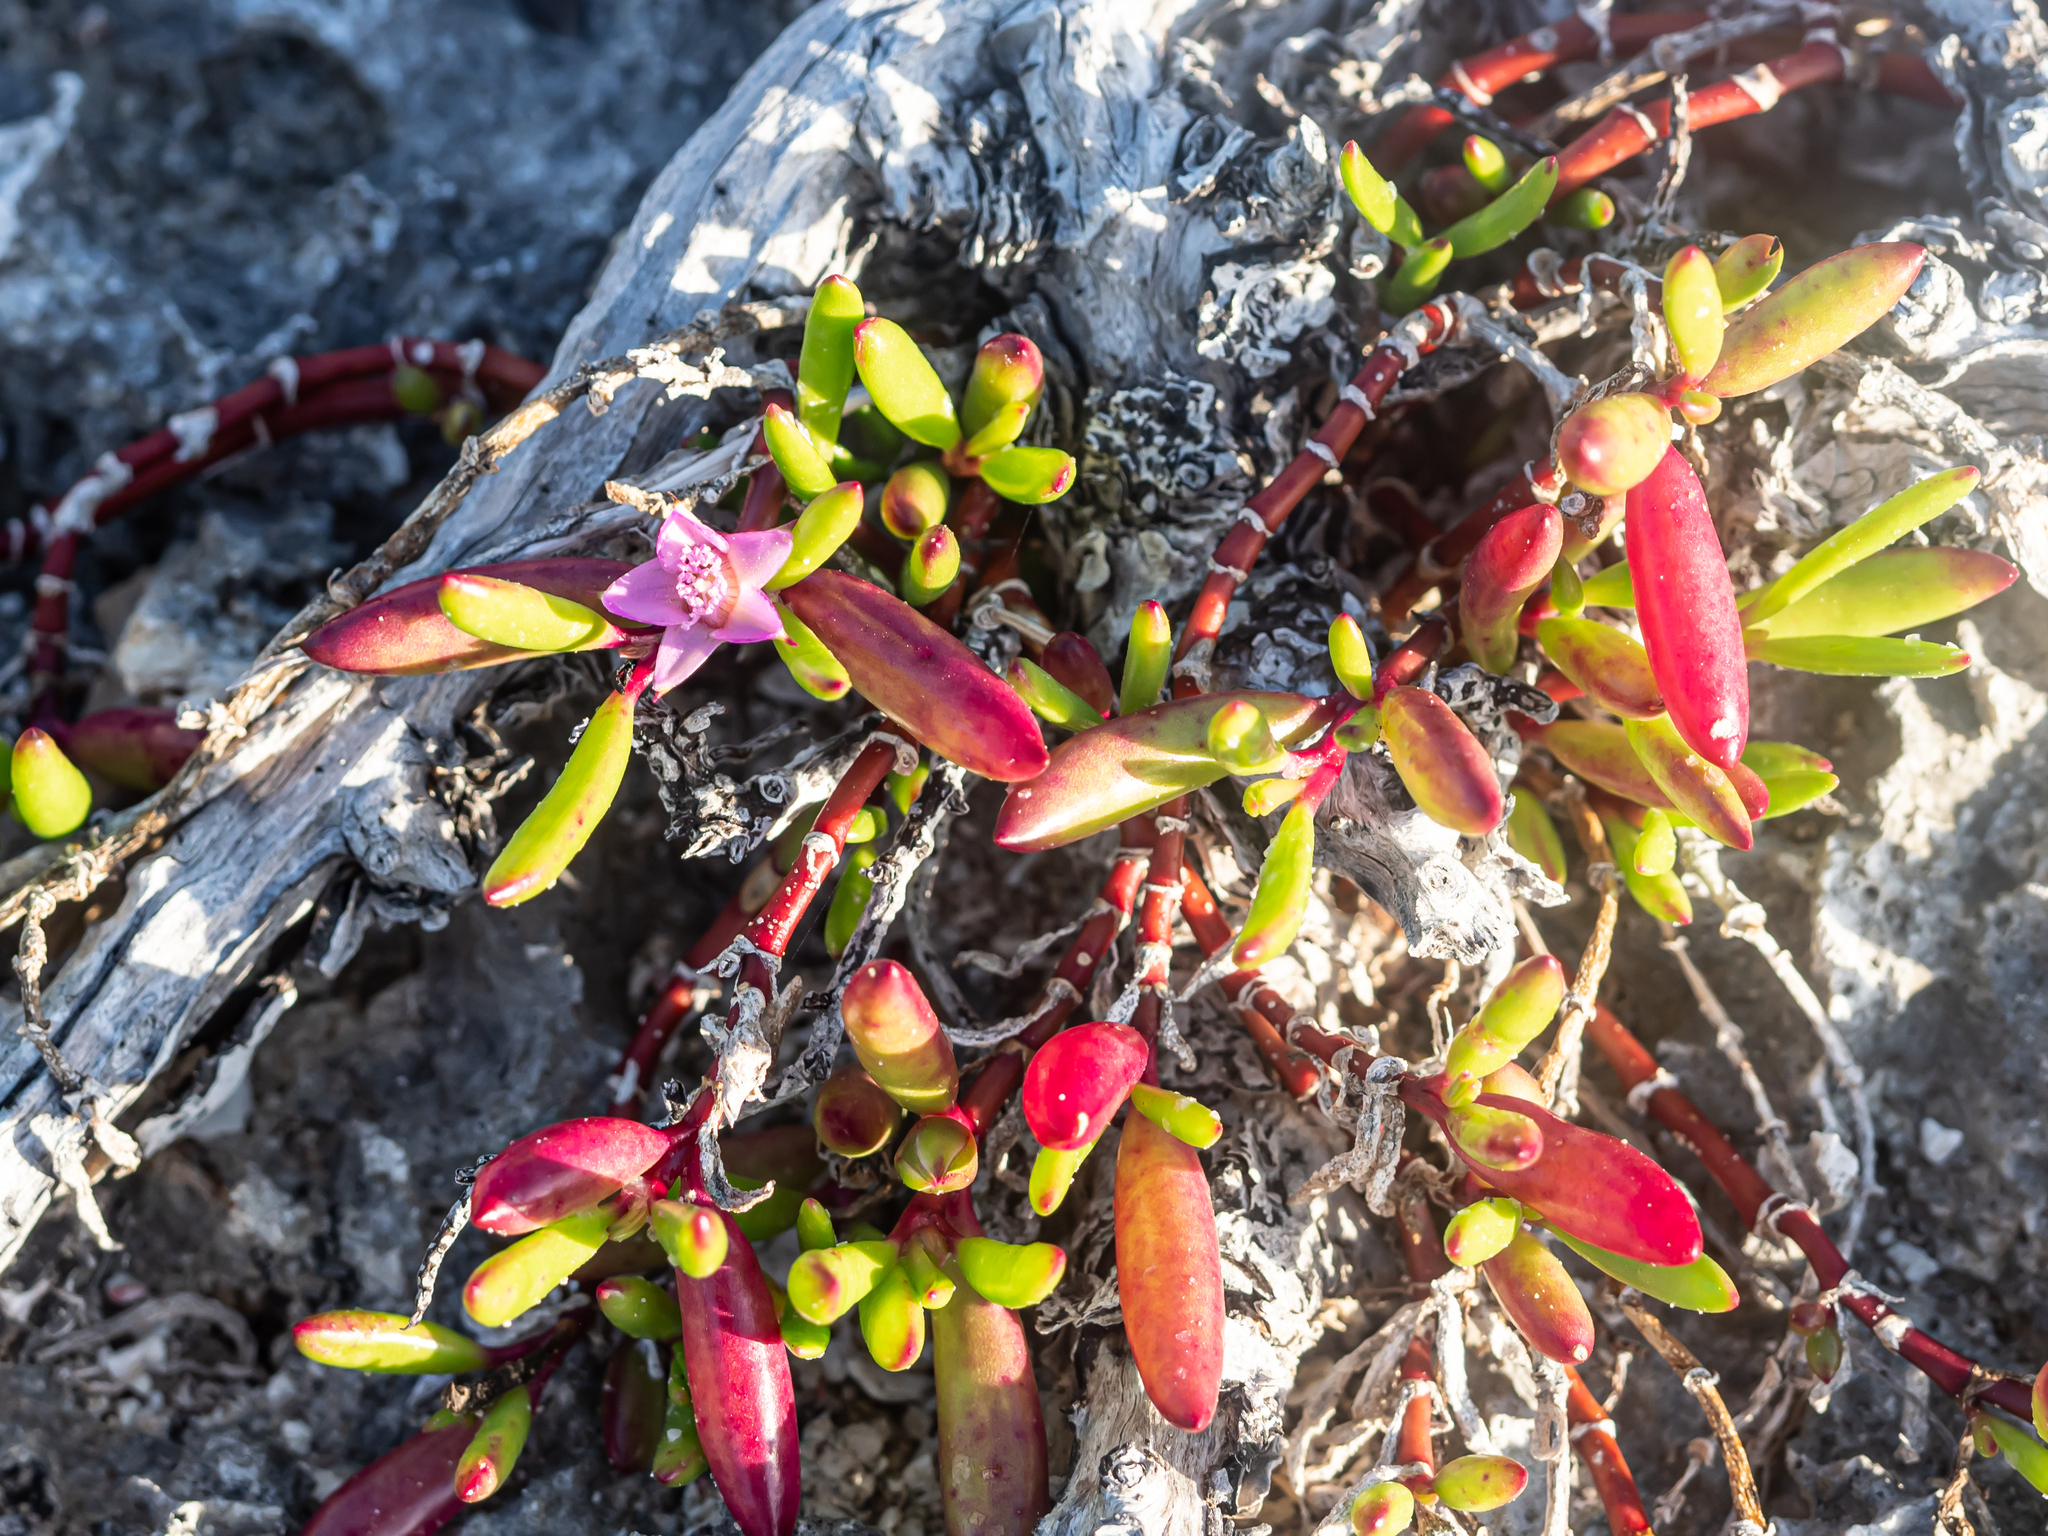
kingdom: Plantae
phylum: Tracheophyta
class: Magnoliopsida
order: Caryophyllales
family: Aizoaceae
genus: Sesuvium
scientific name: Sesuvium portulacastrum
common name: Sea-purslane
